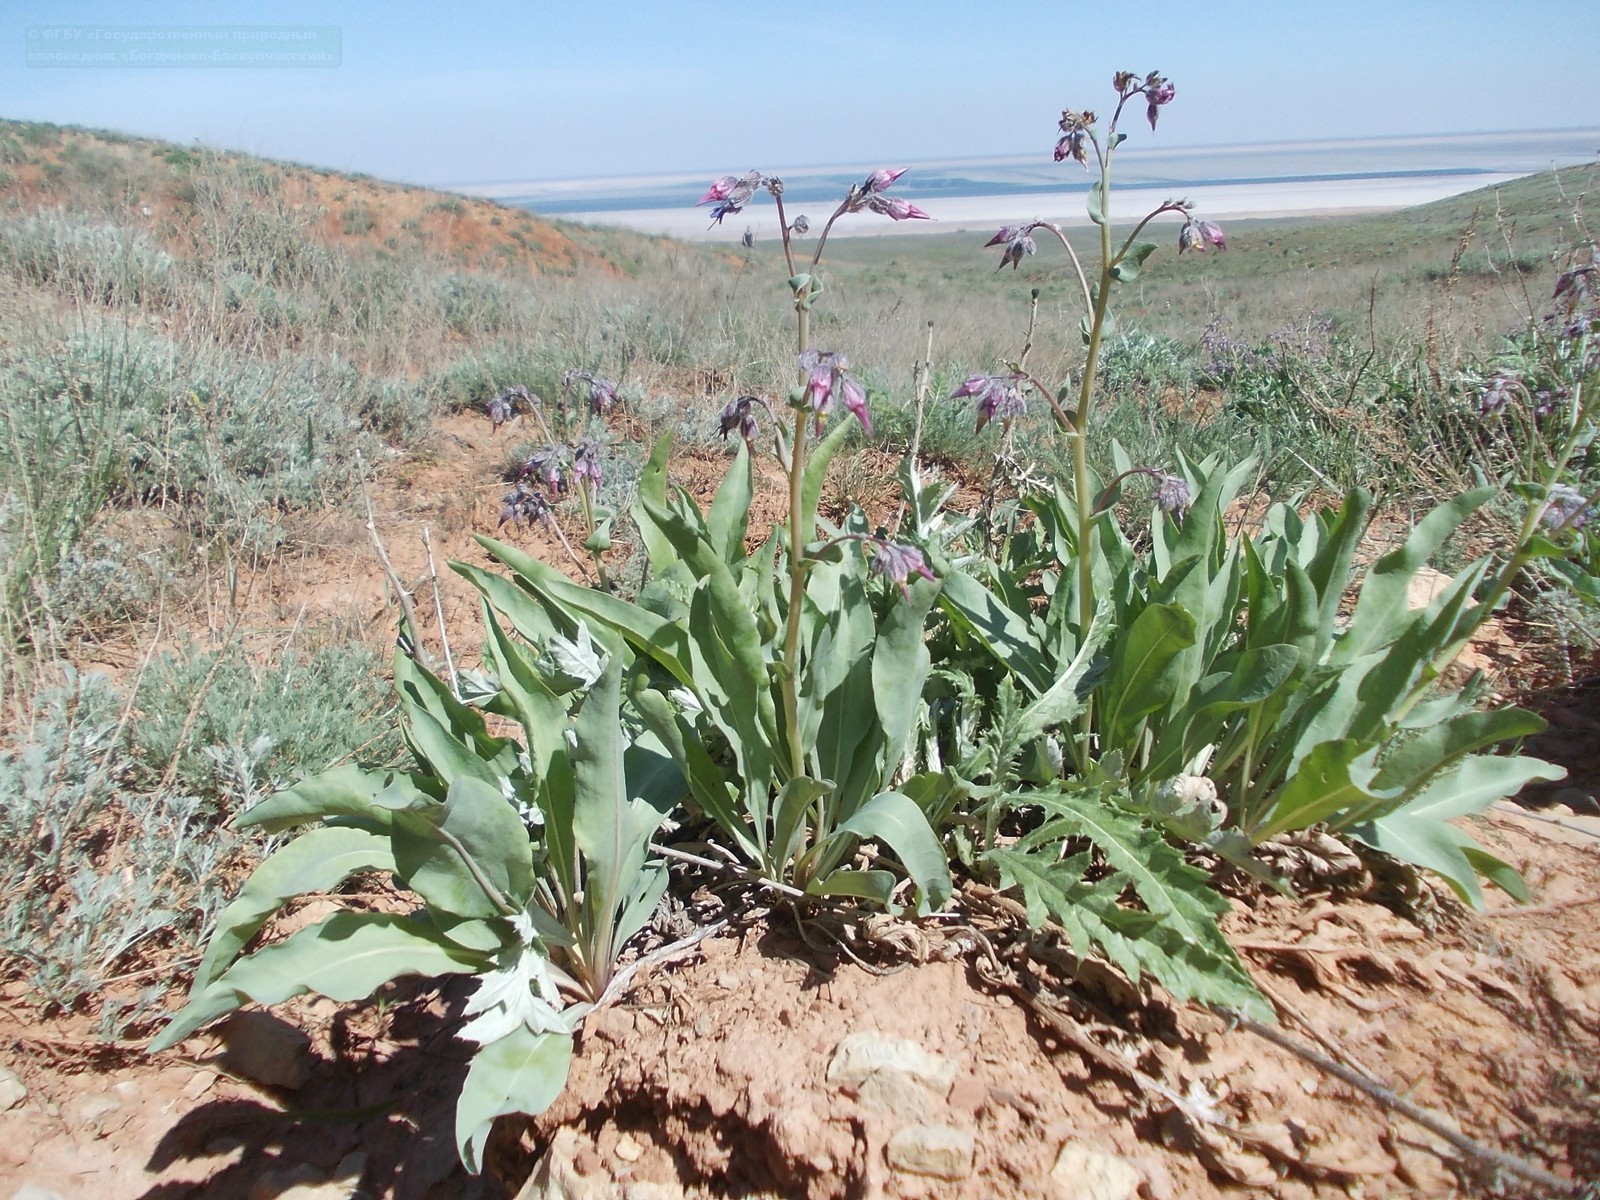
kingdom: Plantae
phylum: Tracheophyta
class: Magnoliopsida
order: Boraginales
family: Boraginaceae
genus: Rindera
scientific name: Rindera tetraspis
